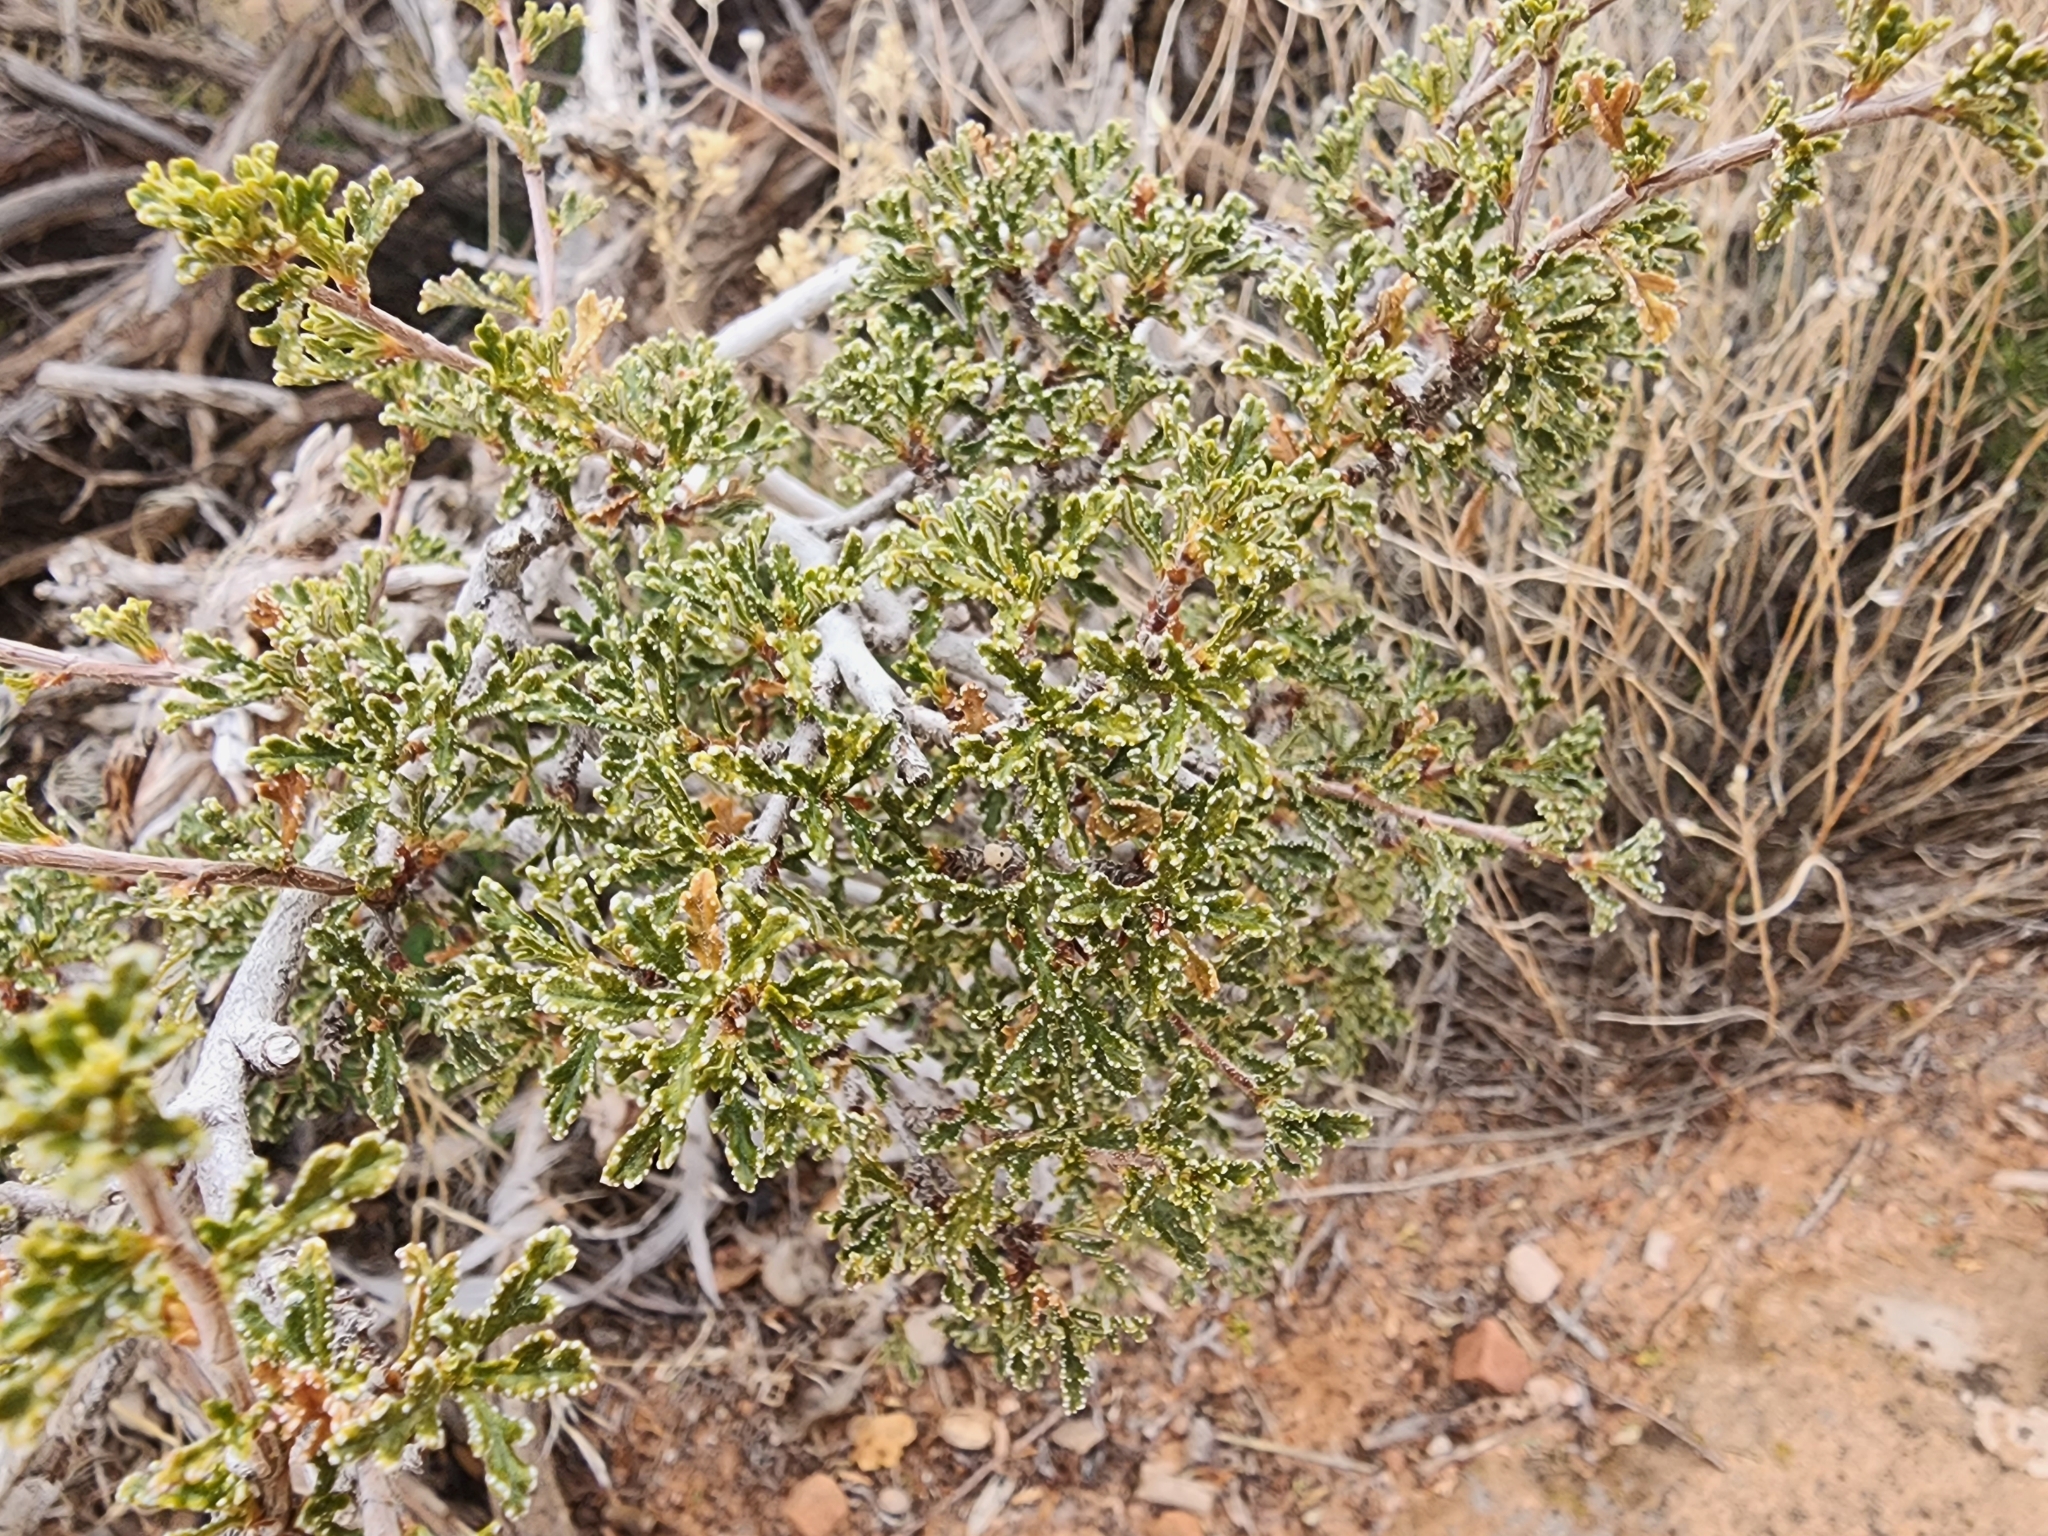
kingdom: Plantae
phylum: Tracheophyta
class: Magnoliopsida
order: Rosales
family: Rosaceae
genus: Purshia
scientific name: Purshia stansburiana
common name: Stansbury's cliffrose
